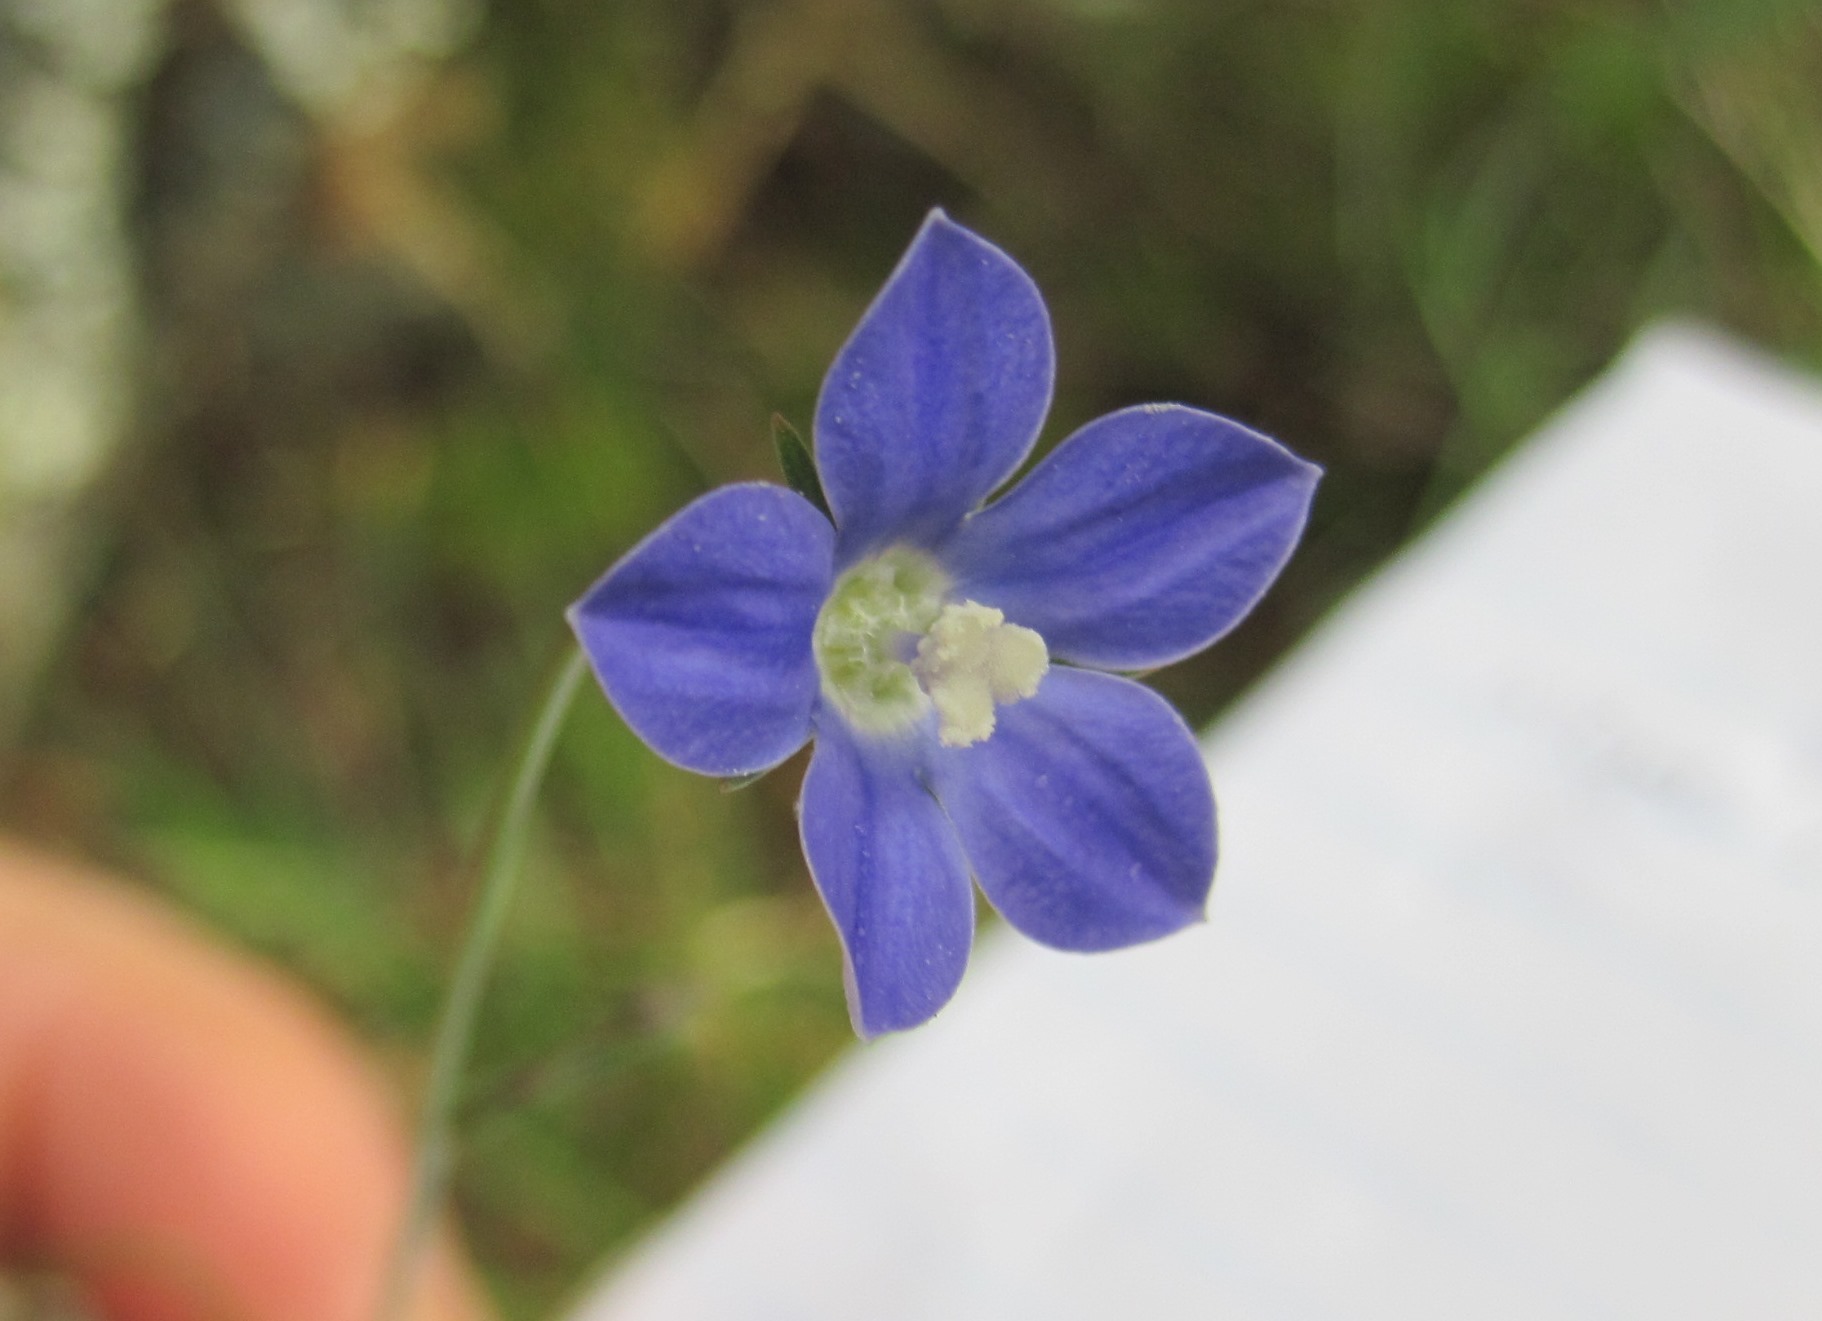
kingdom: Plantae
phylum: Tracheophyta
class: Magnoliopsida
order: Asterales
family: Campanulaceae
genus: Wahlenbergia
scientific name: Wahlenbergia violacea
